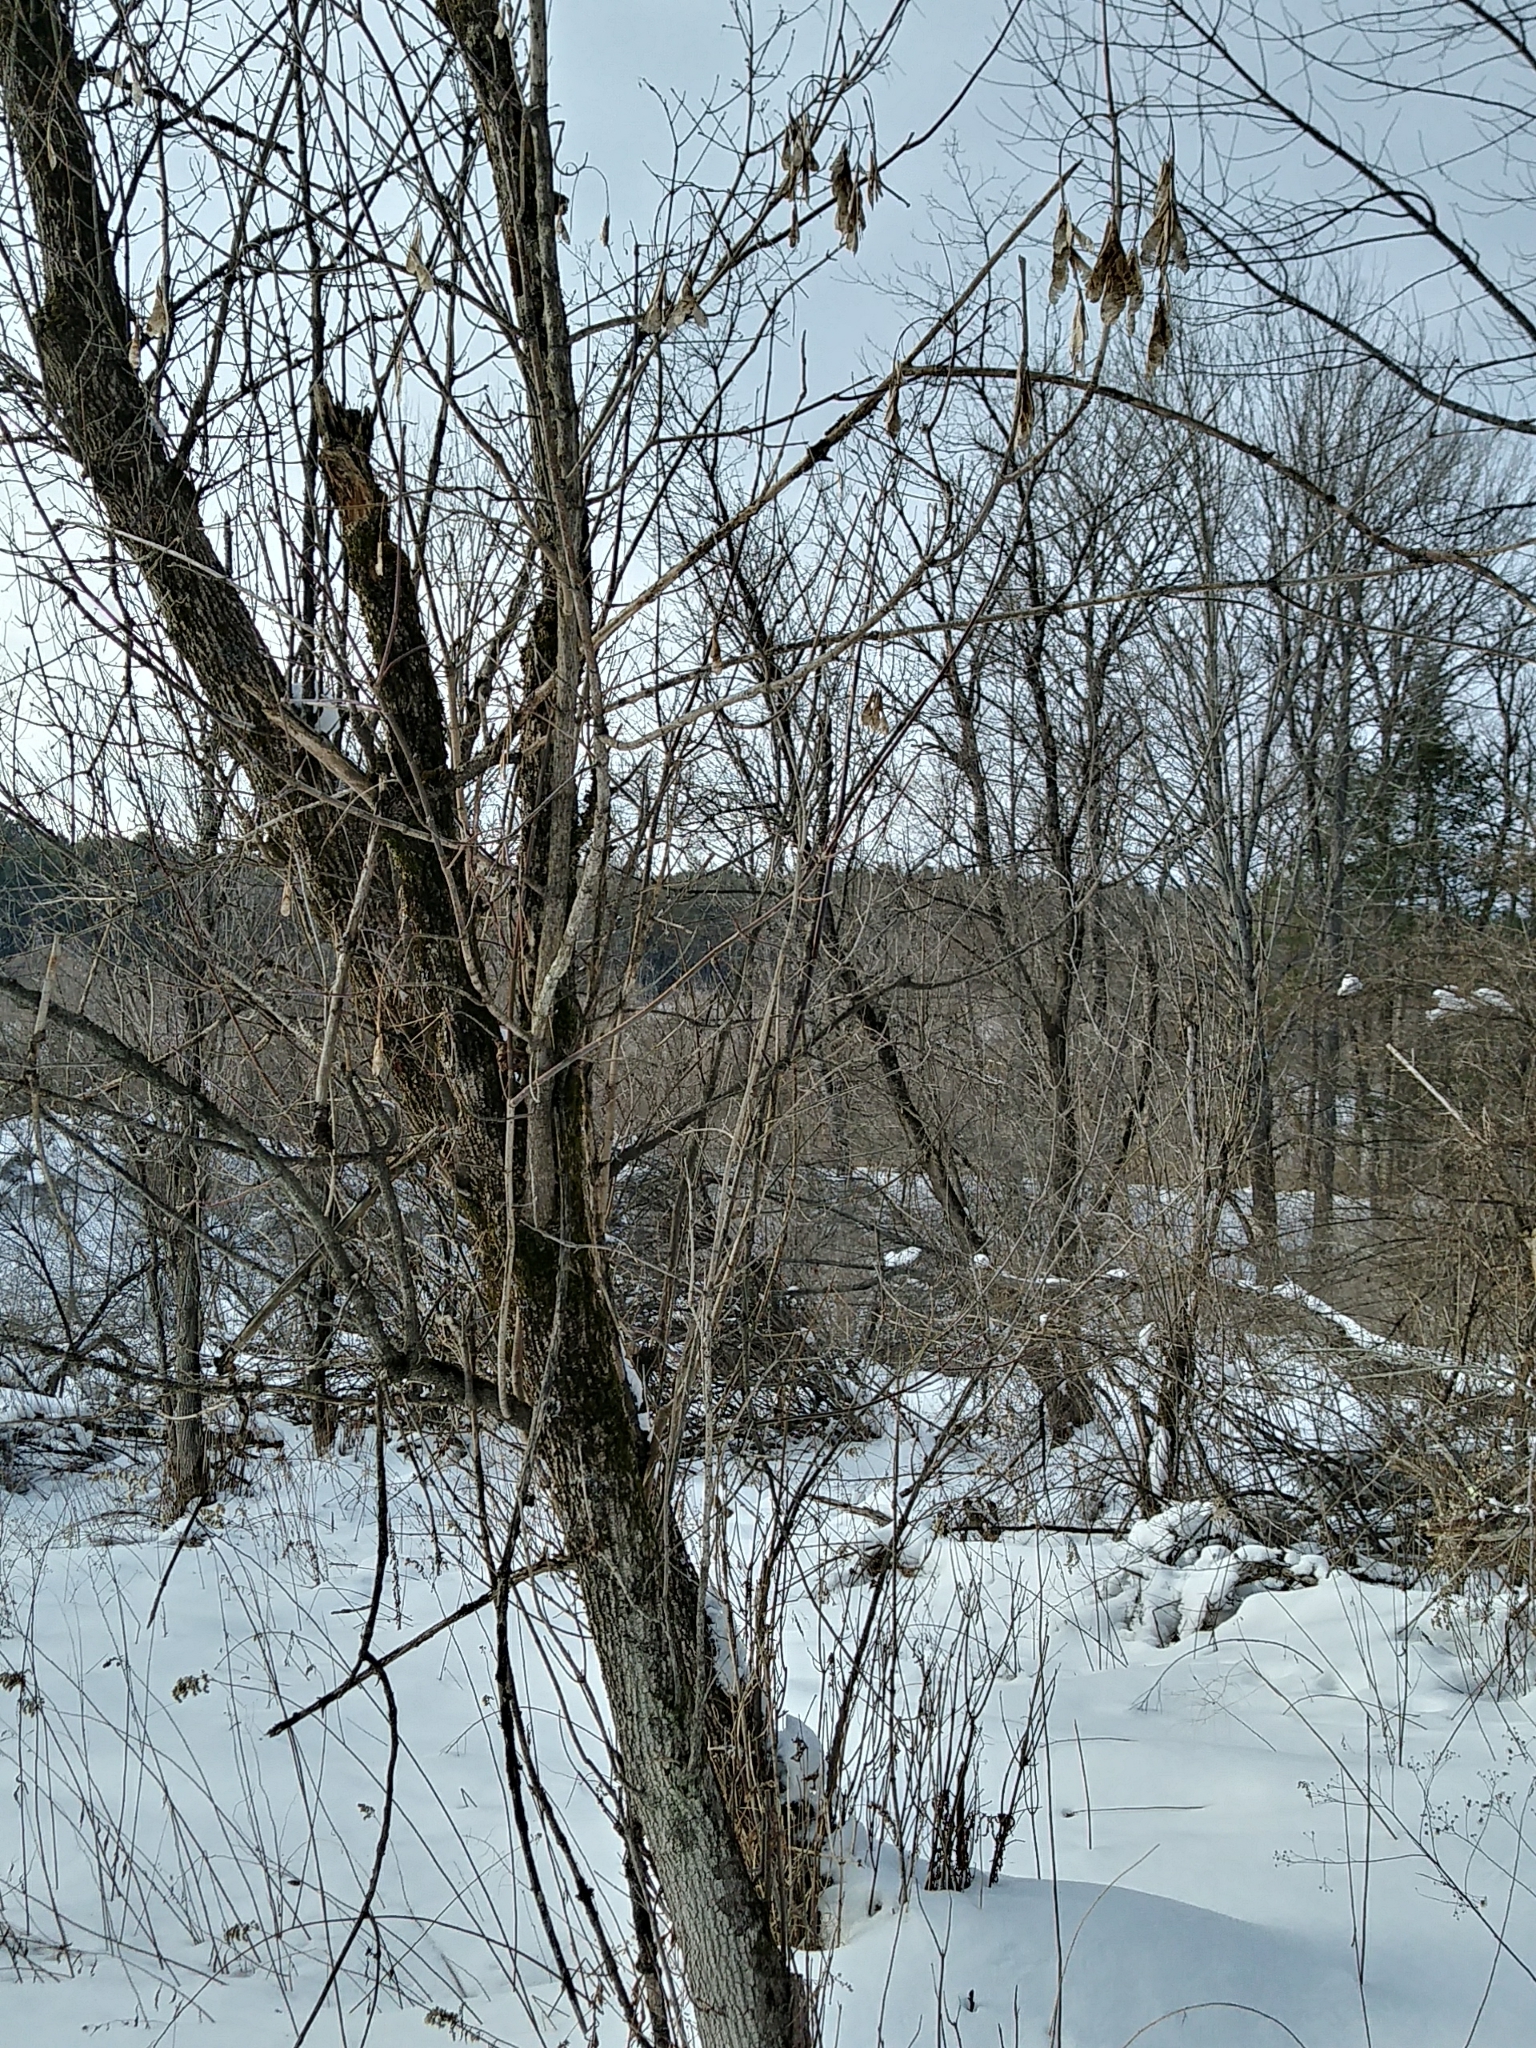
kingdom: Plantae
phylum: Tracheophyta
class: Magnoliopsida
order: Sapindales
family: Sapindaceae
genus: Acer
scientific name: Acer negundo
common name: Ashleaf maple
